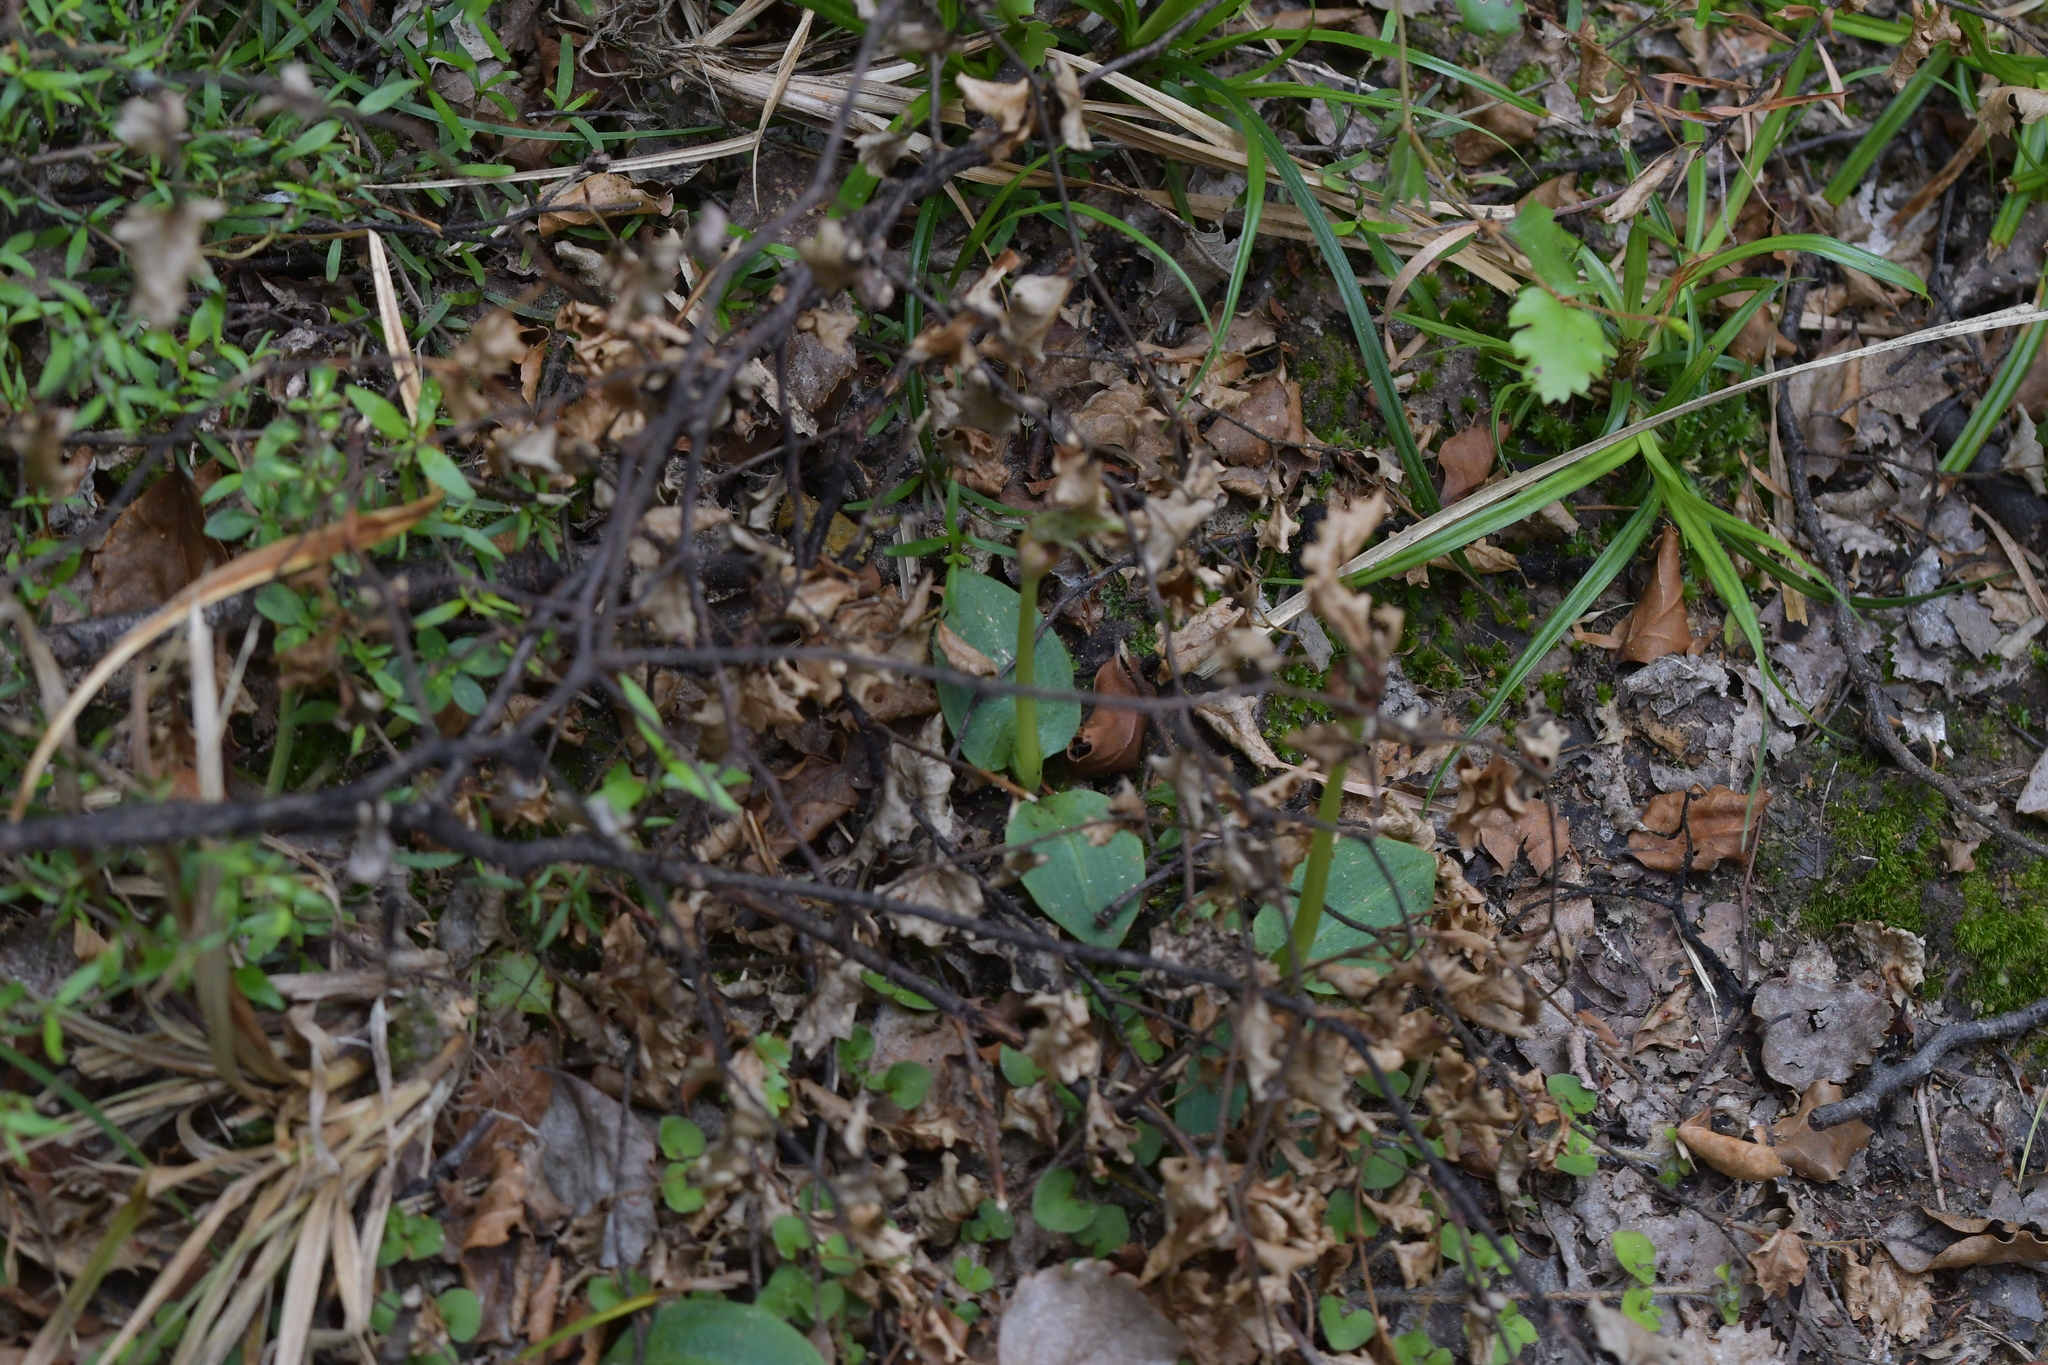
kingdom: Plantae
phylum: Tracheophyta
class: Liliopsida
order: Asparagales
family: Orchidaceae
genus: Chiloglottis
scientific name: Chiloglottis cornuta
